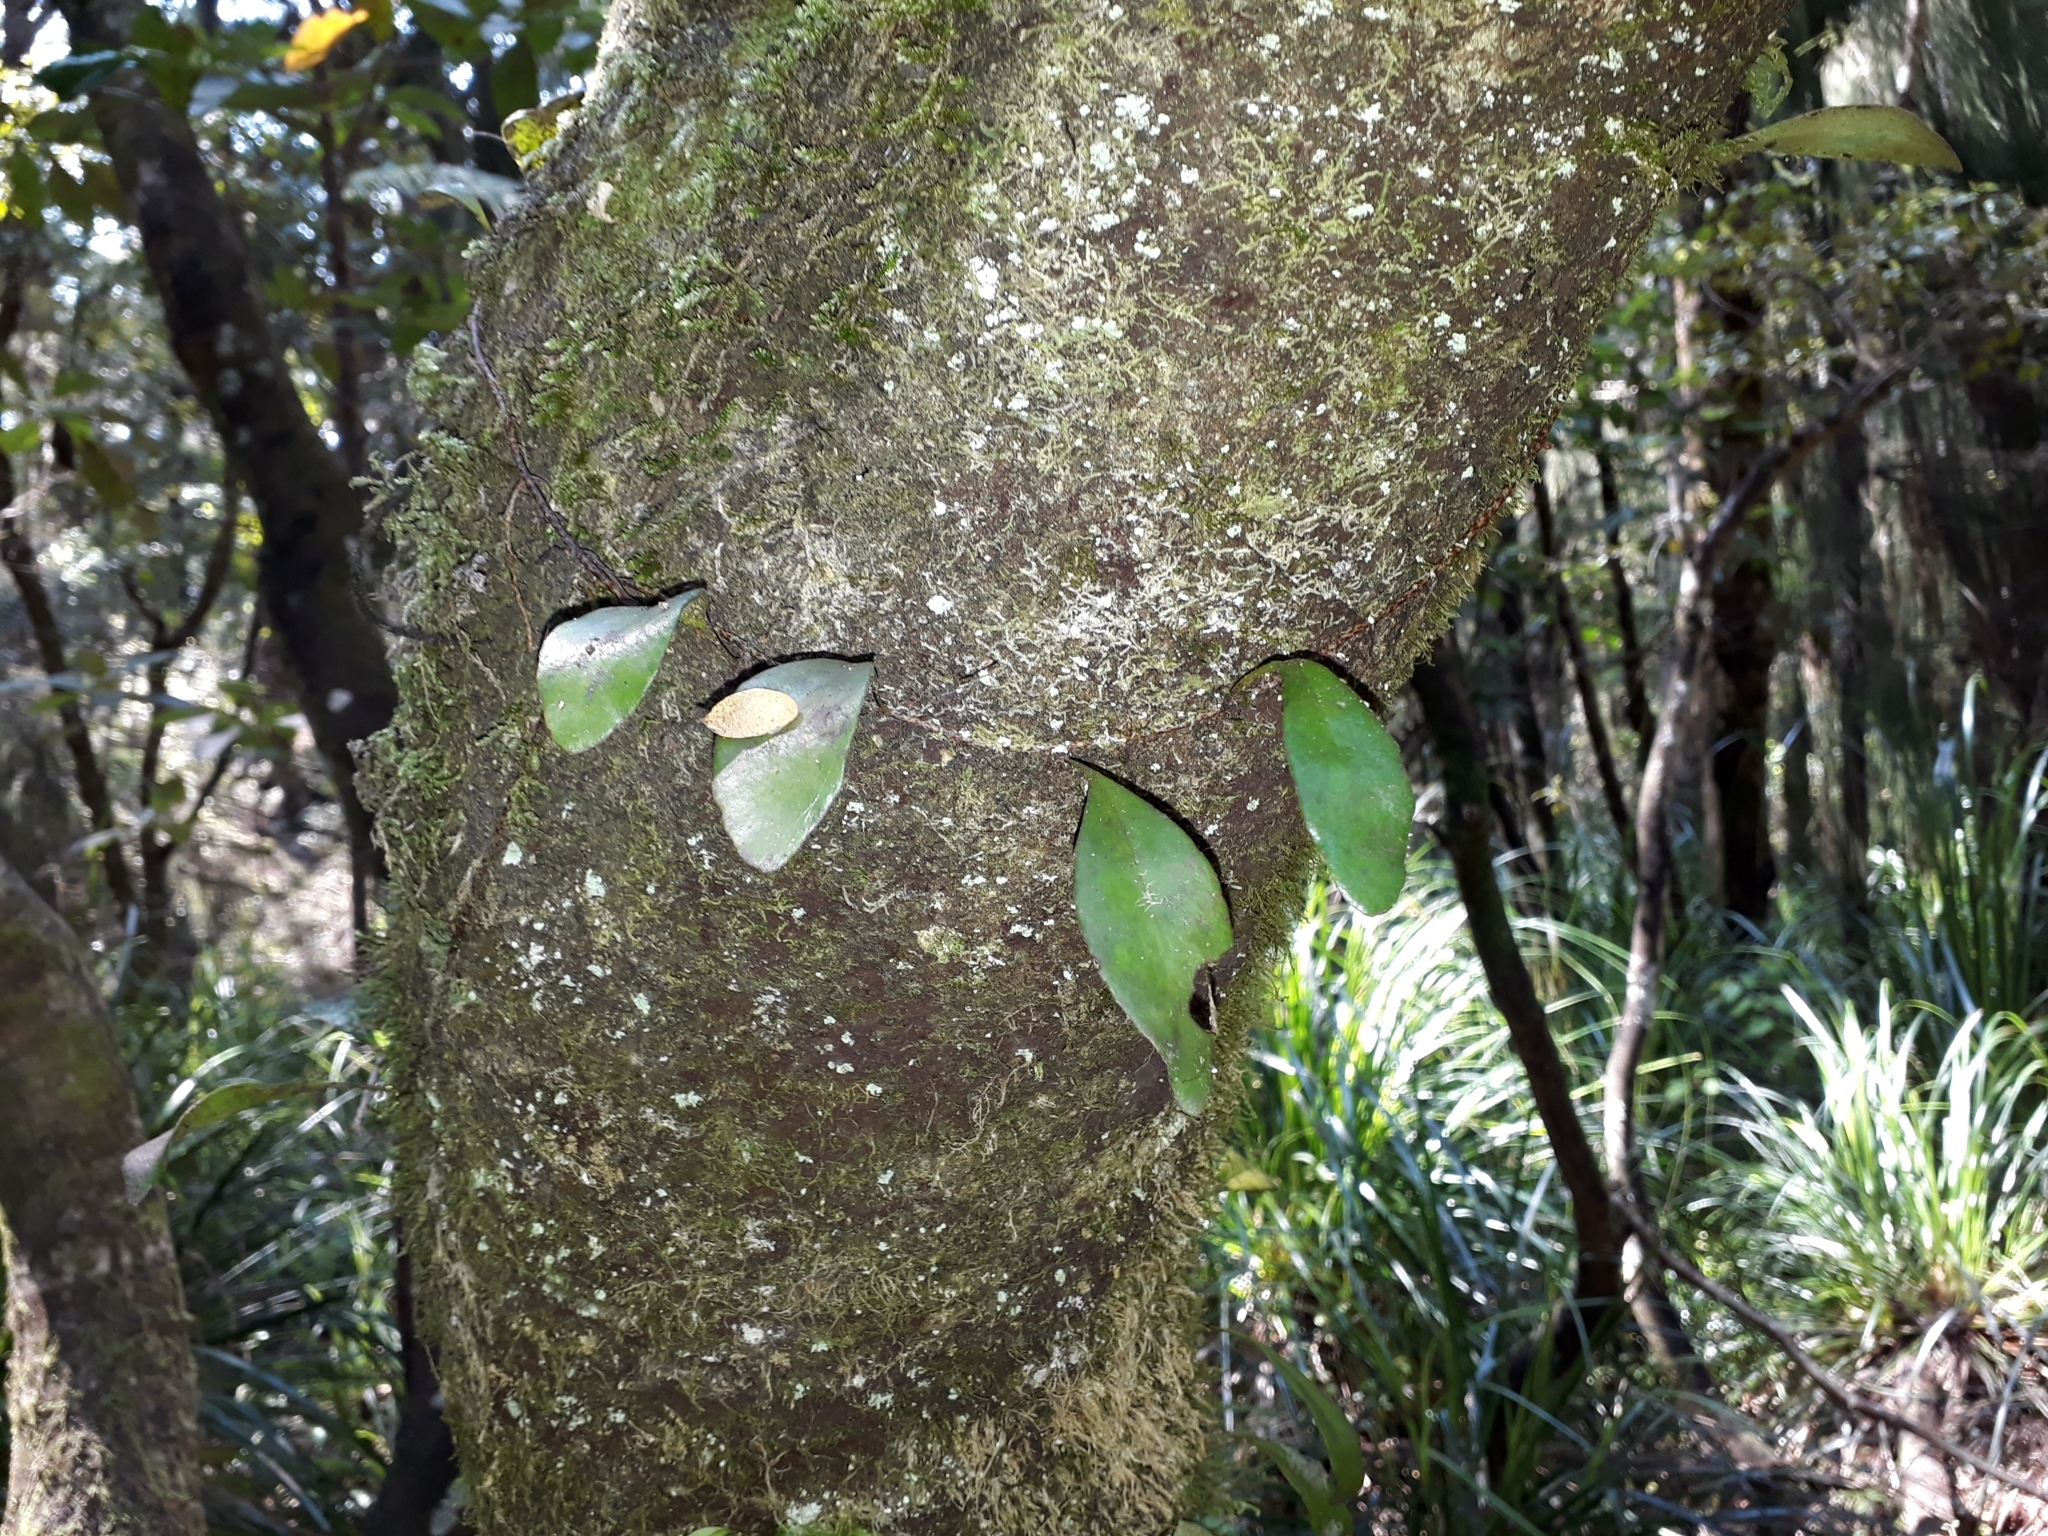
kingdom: Plantae
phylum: Tracheophyta
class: Polypodiopsida
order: Polypodiales
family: Polypodiaceae
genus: Pyrrosia
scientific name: Pyrrosia eleagnifolia
